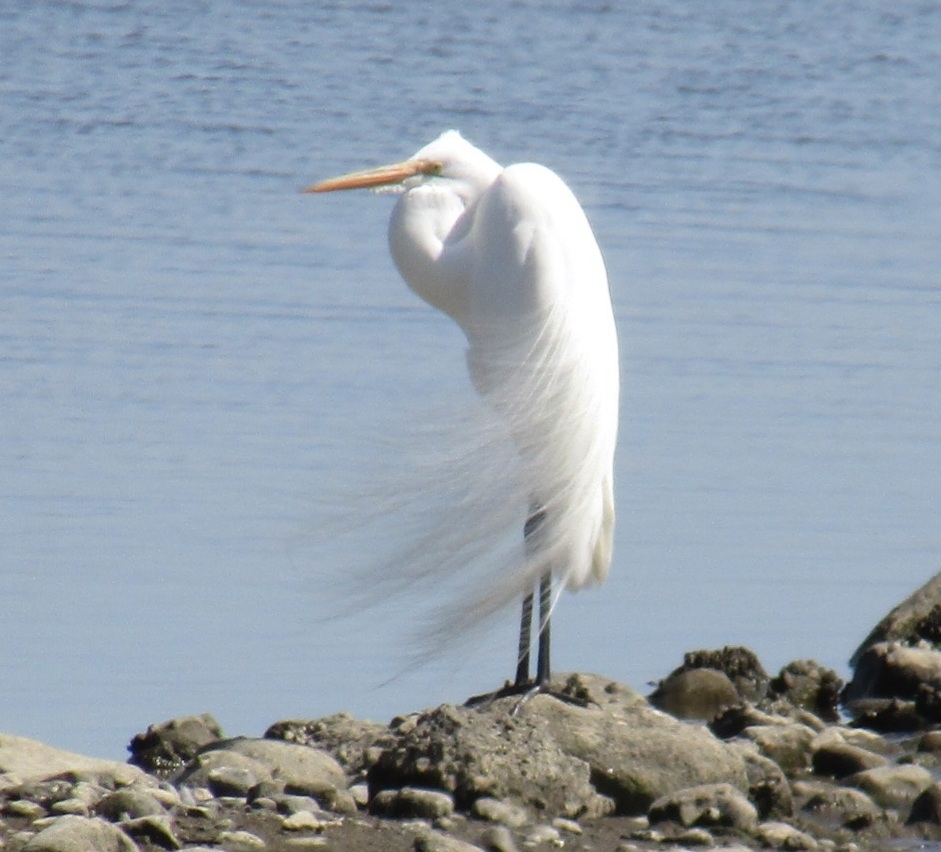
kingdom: Animalia
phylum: Chordata
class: Aves
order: Pelecaniformes
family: Ardeidae
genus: Ardea
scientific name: Ardea alba
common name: Great egret
